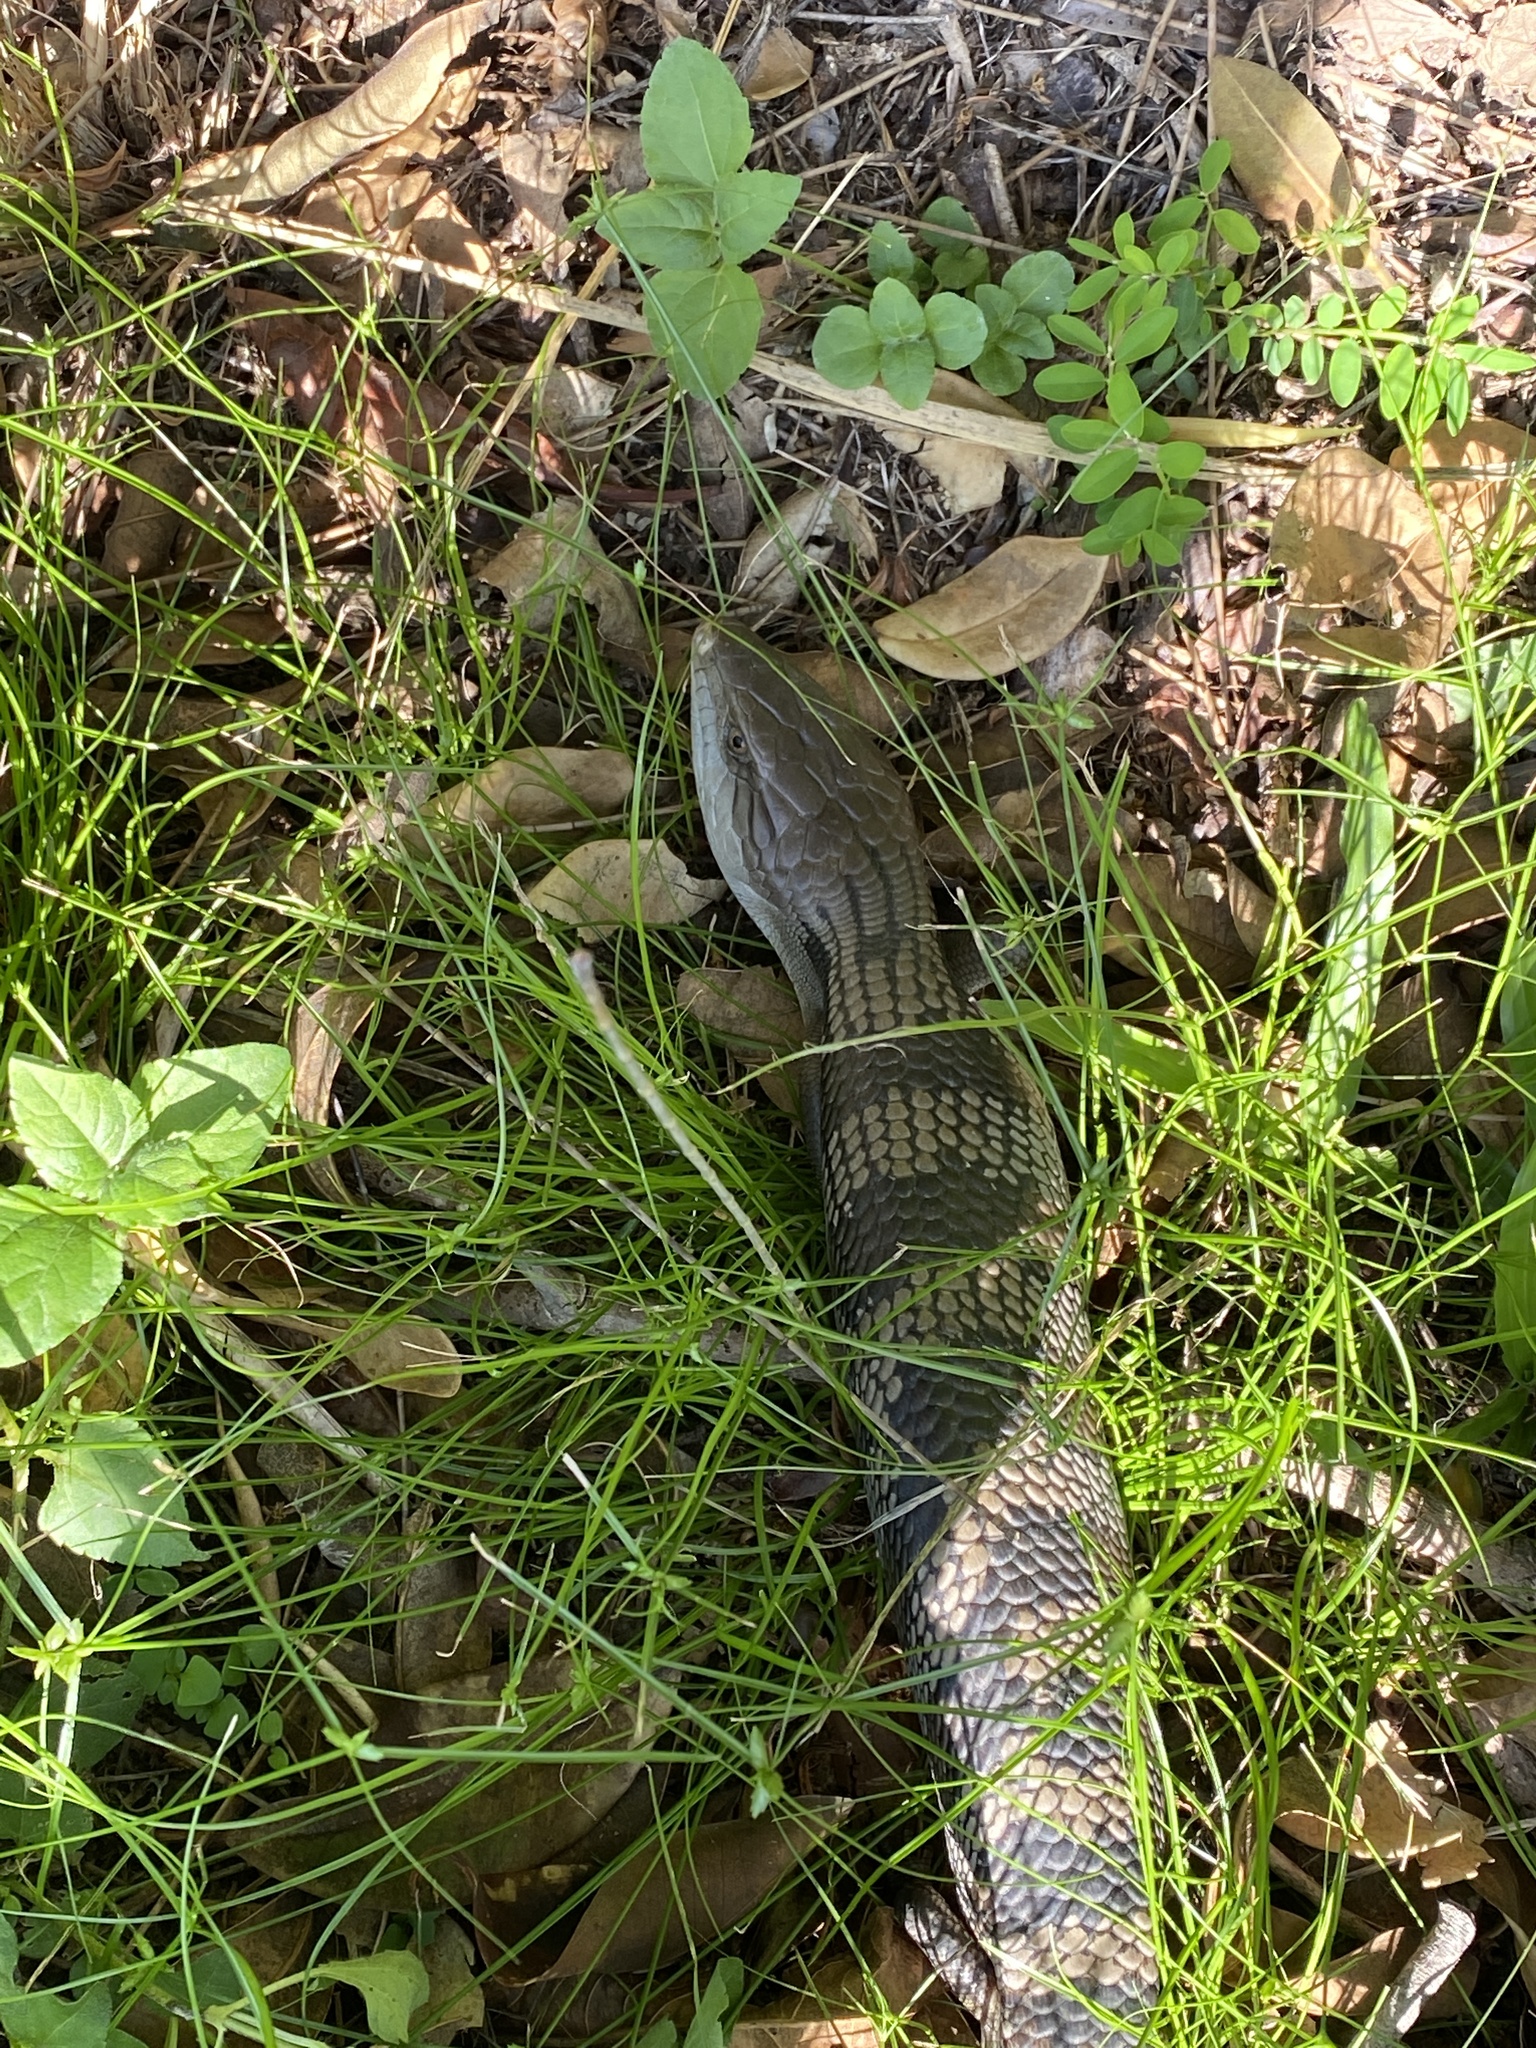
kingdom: Animalia
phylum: Chordata
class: Squamata
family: Scincidae
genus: Tiliqua
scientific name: Tiliqua scincoides
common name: Common bluetongue
